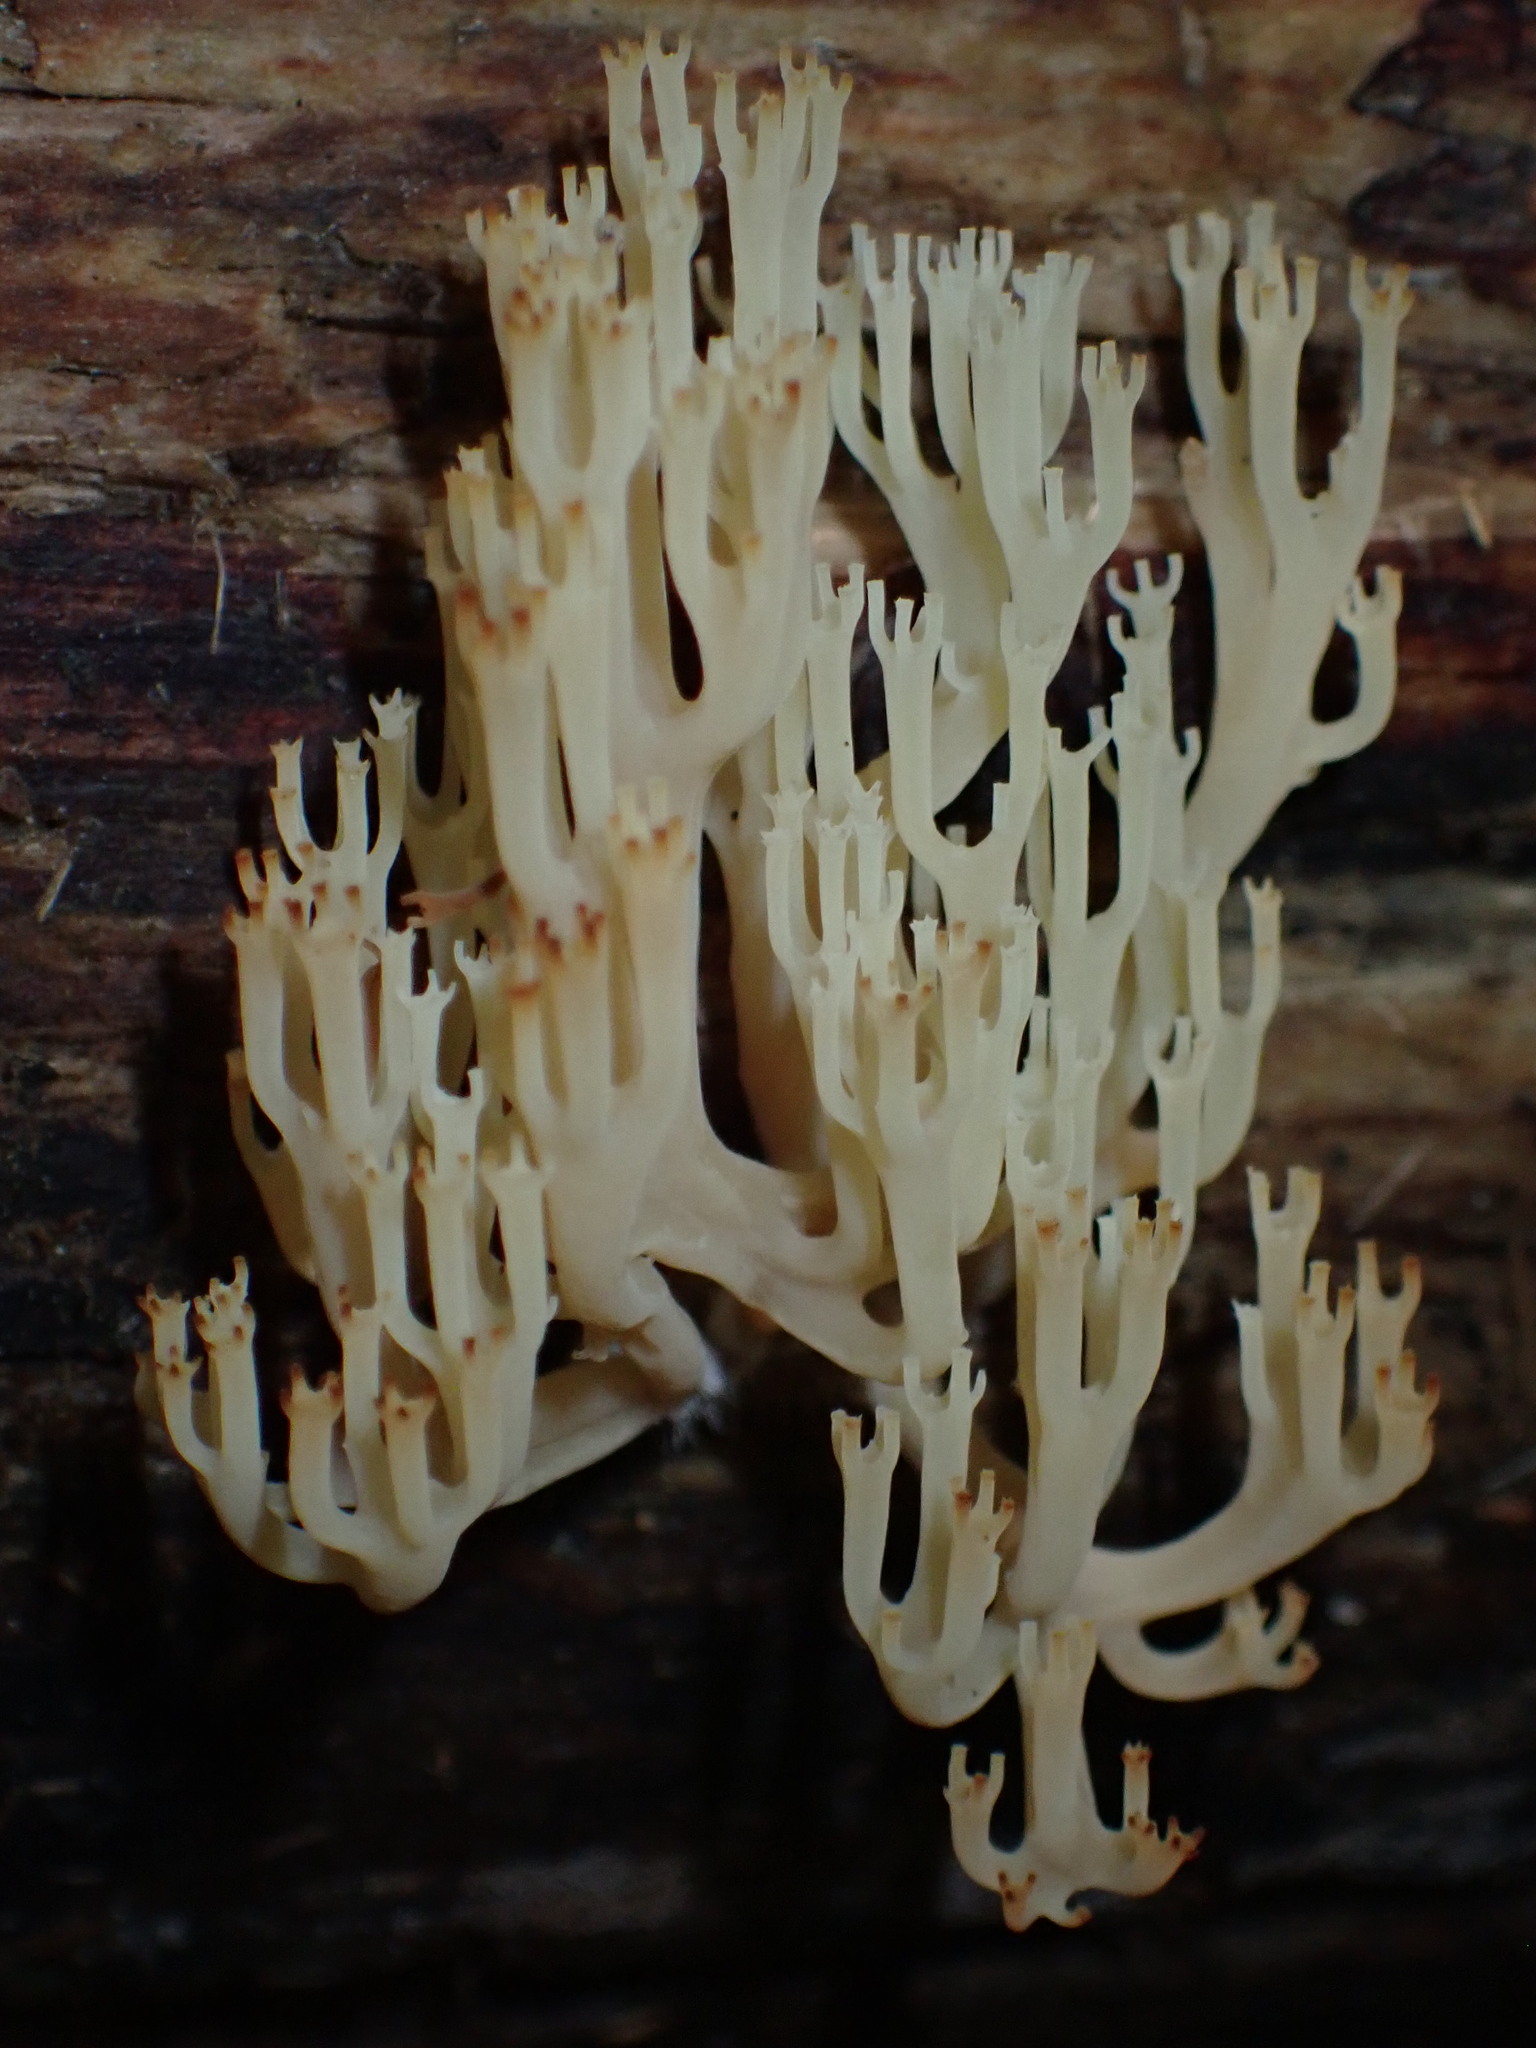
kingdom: Fungi
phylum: Basidiomycota
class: Agaricomycetes
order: Russulales
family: Auriscalpiaceae
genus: Artomyces
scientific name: Artomyces pyxidatus
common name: Crown-tipped coral fungus
